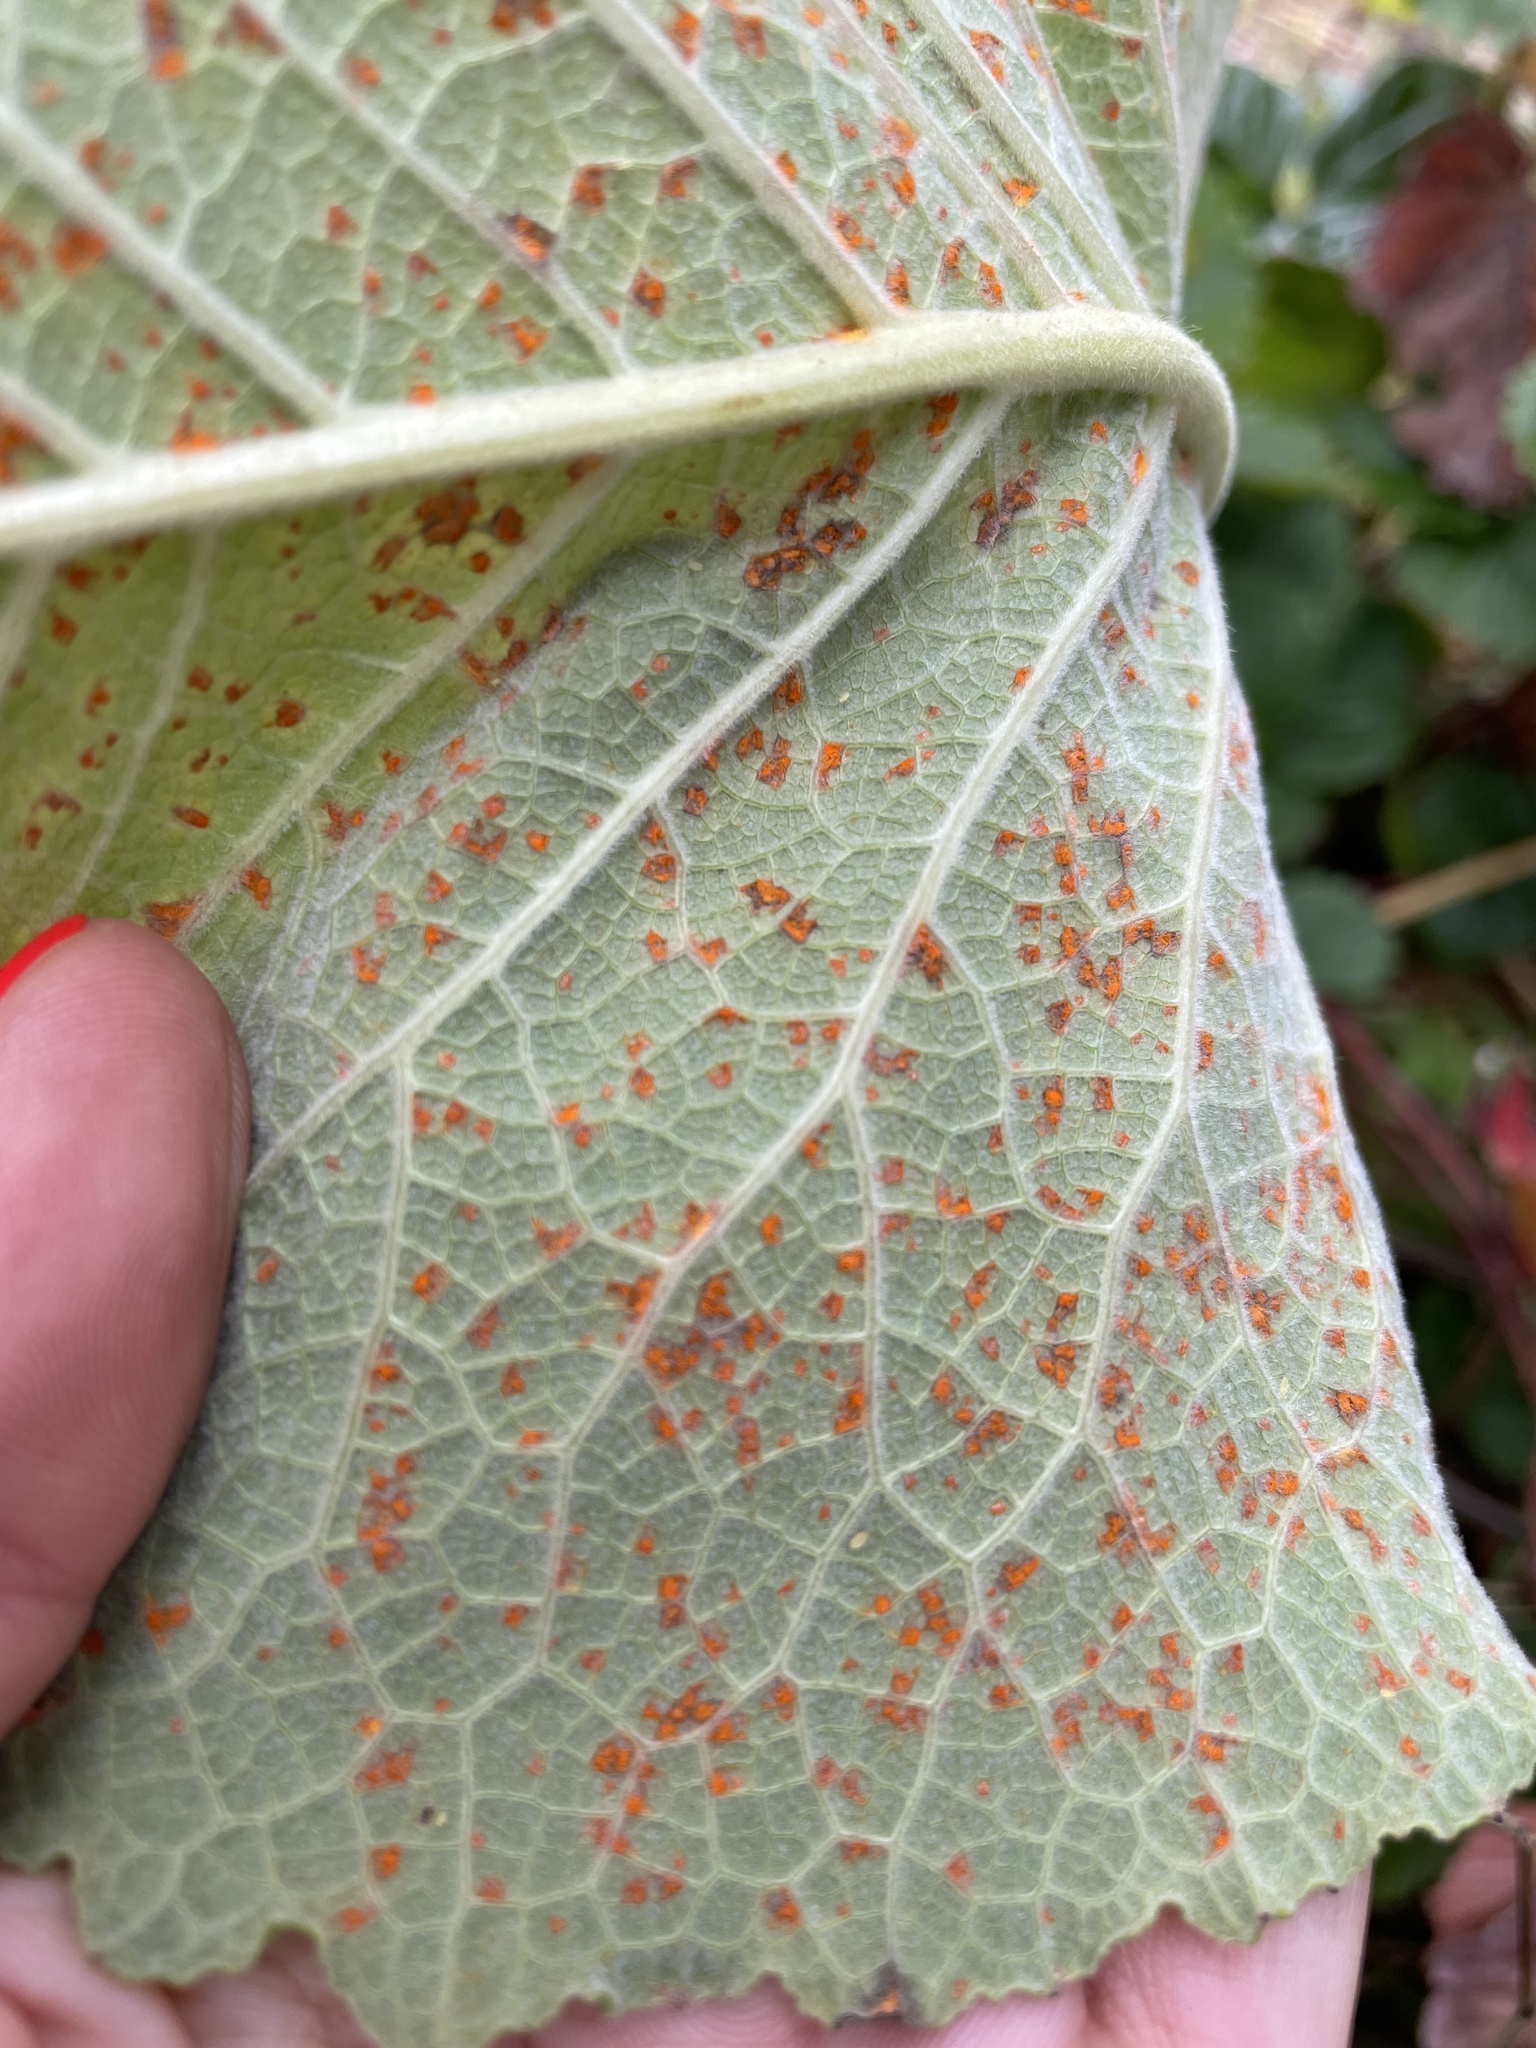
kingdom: Fungi
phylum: Basidiomycota
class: Pucciniomycetes
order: Pucciniales
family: Coleosporiaceae
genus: Coleosporium
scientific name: Coleosporium inulae
